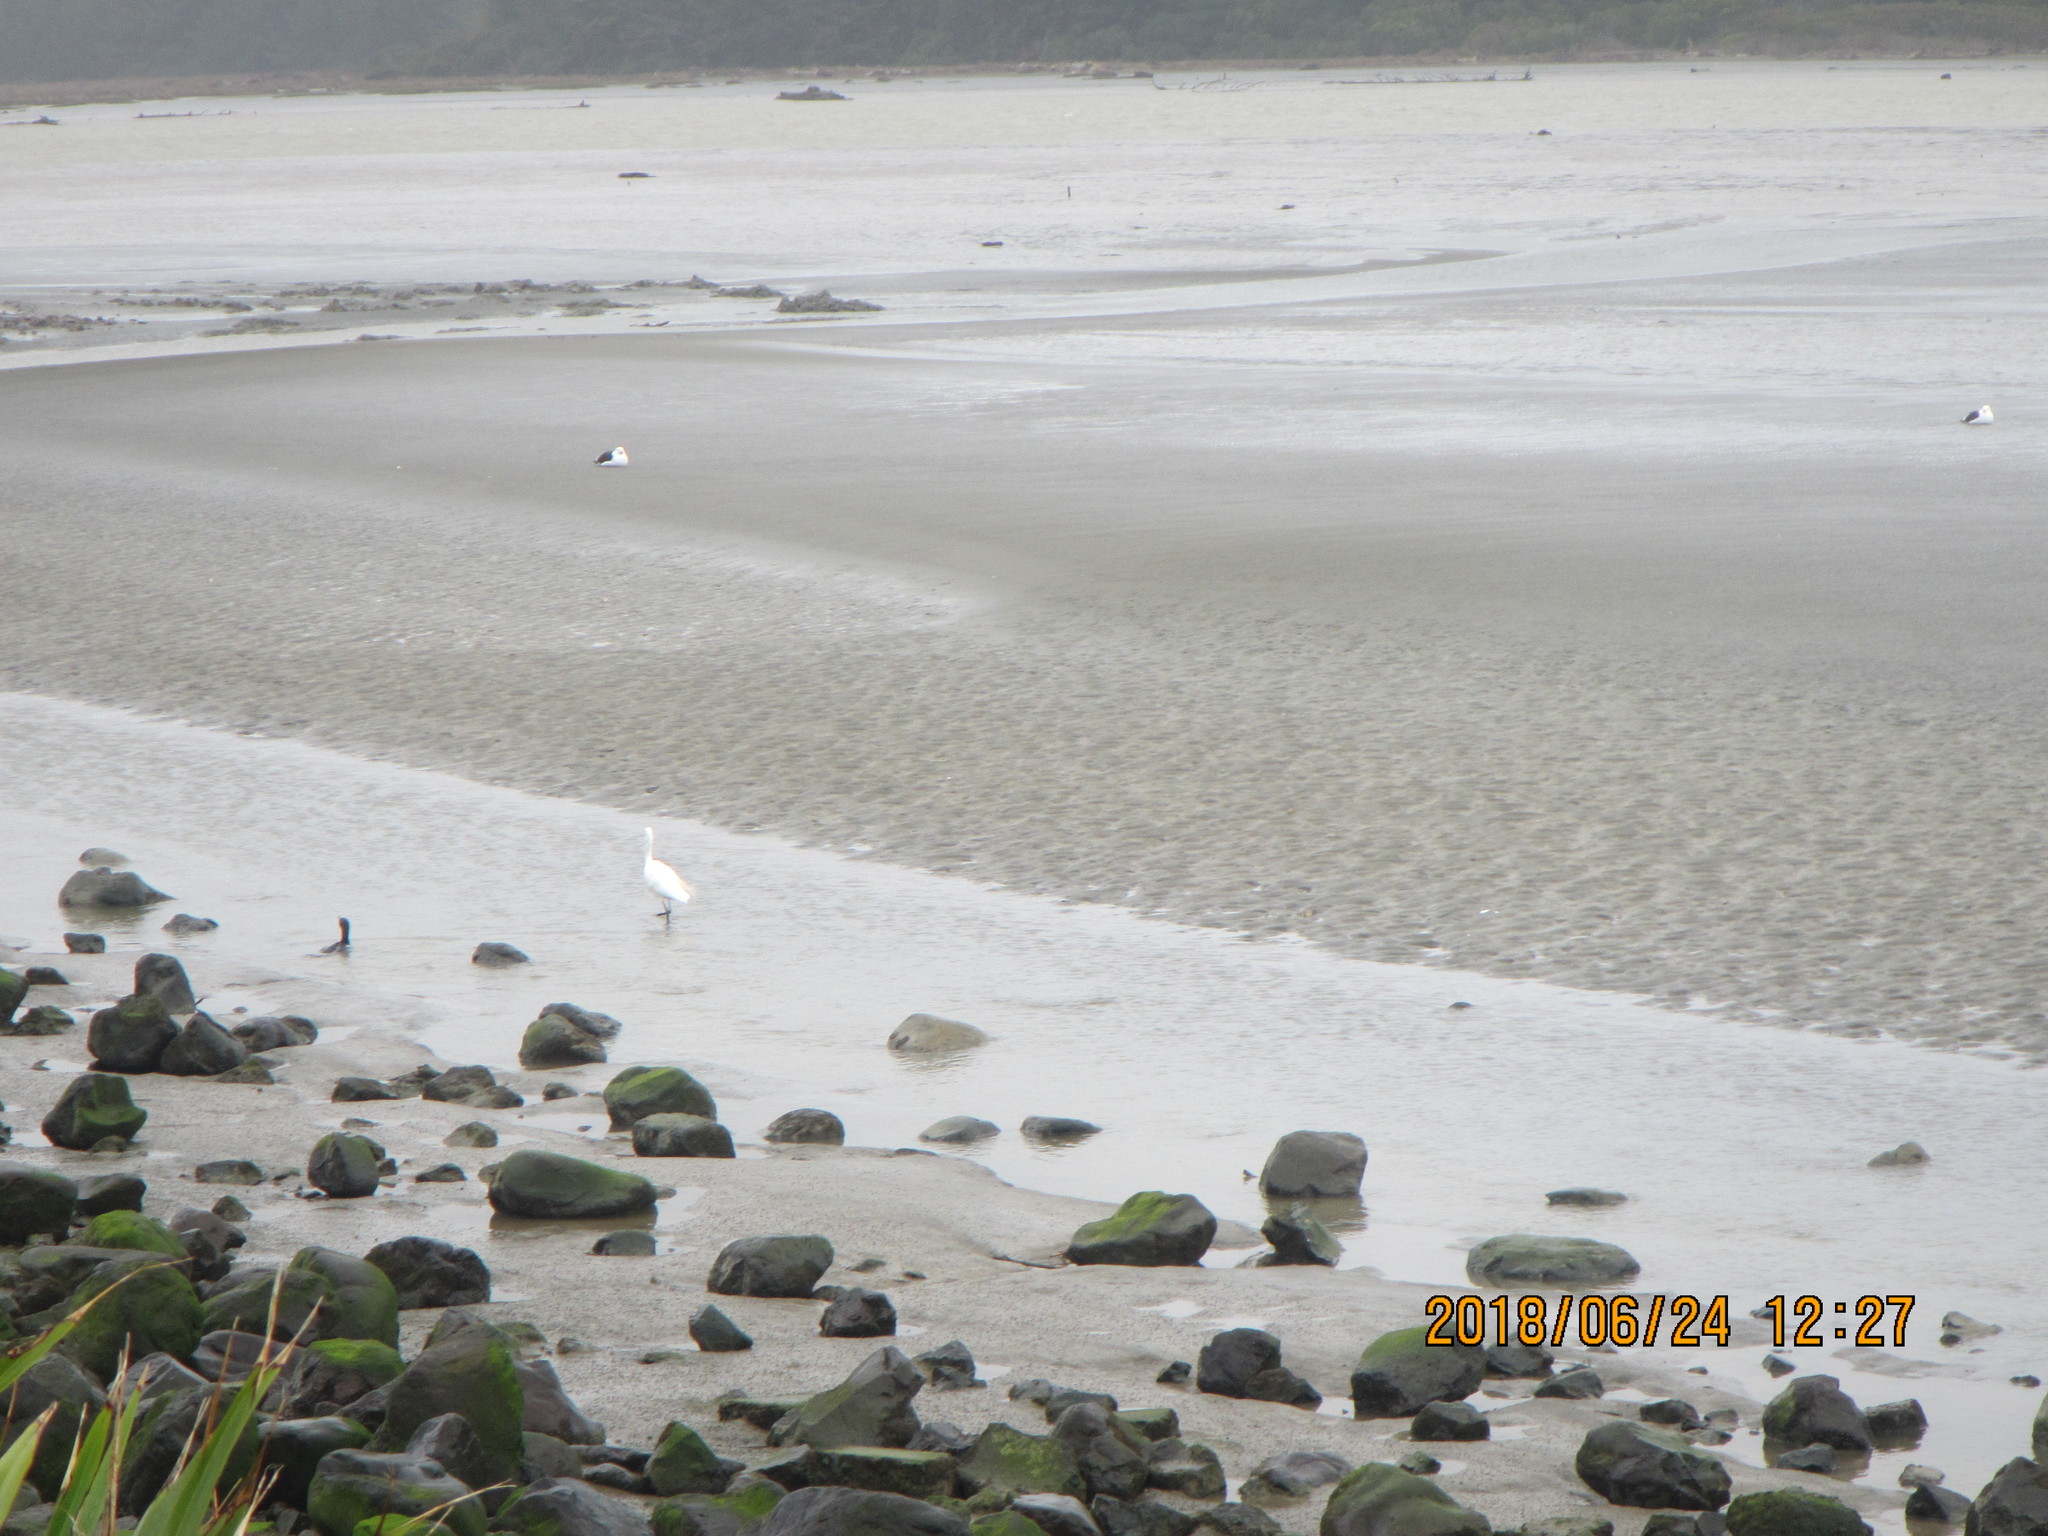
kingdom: Animalia
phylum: Chordata
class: Aves
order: Suliformes
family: Phalacrocoracidae
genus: Phalacrocorax
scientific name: Phalacrocorax carbo
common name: Great cormorant
